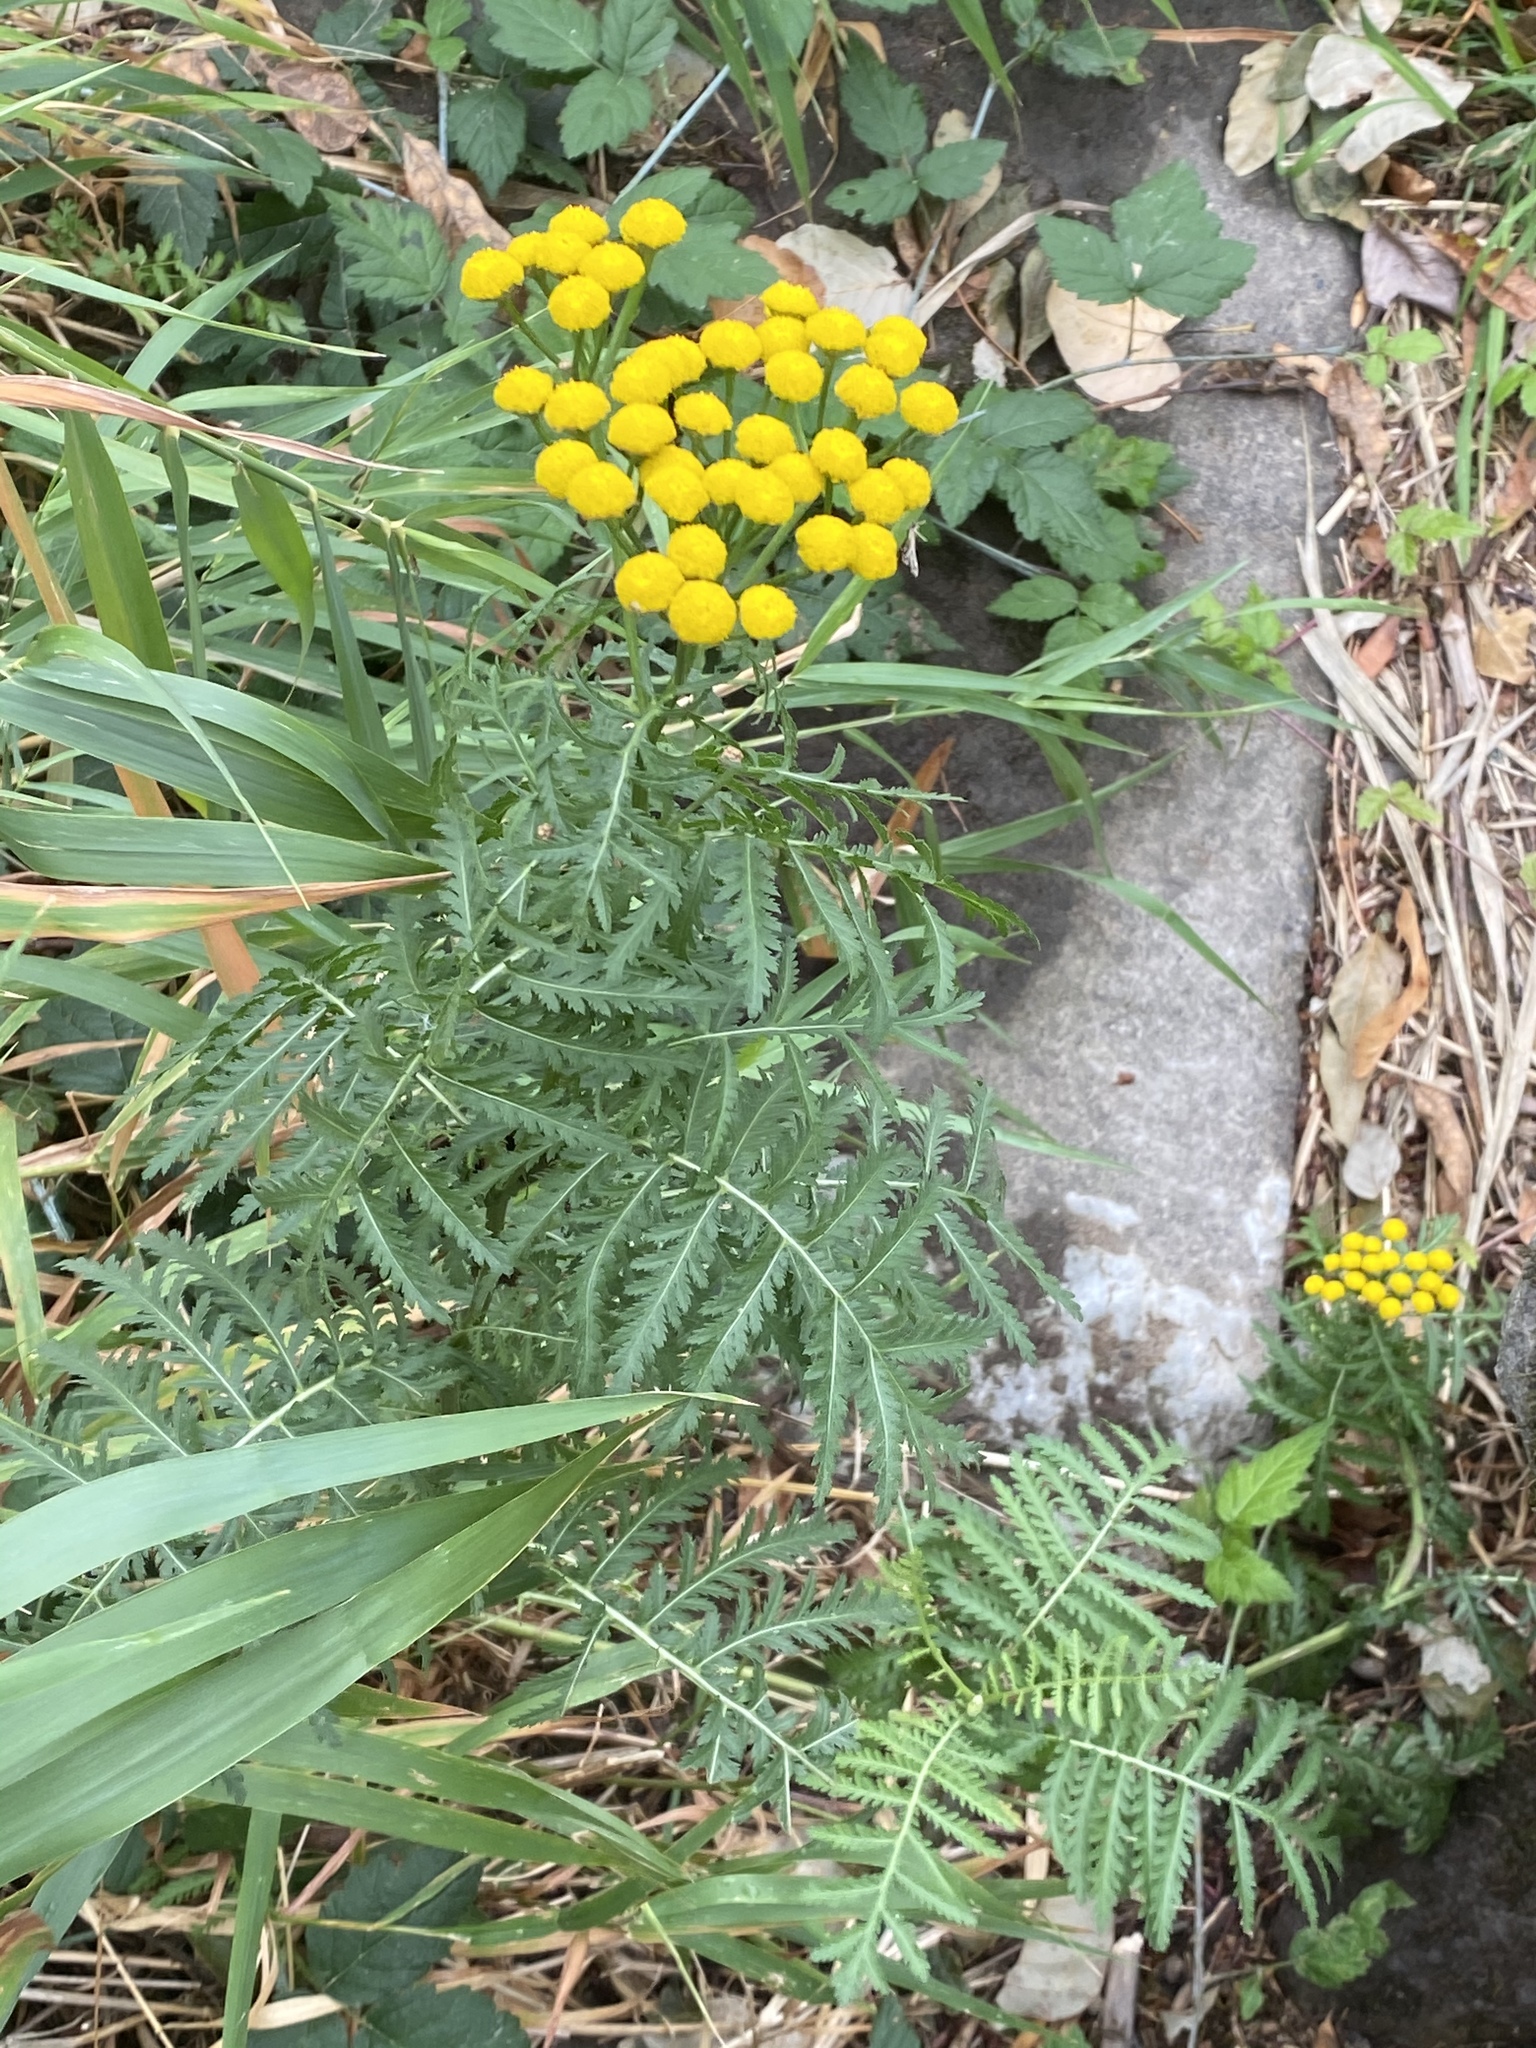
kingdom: Plantae
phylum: Tracheophyta
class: Magnoliopsida
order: Asterales
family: Asteraceae
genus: Tanacetum
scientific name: Tanacetum vulgare
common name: Common tansy
